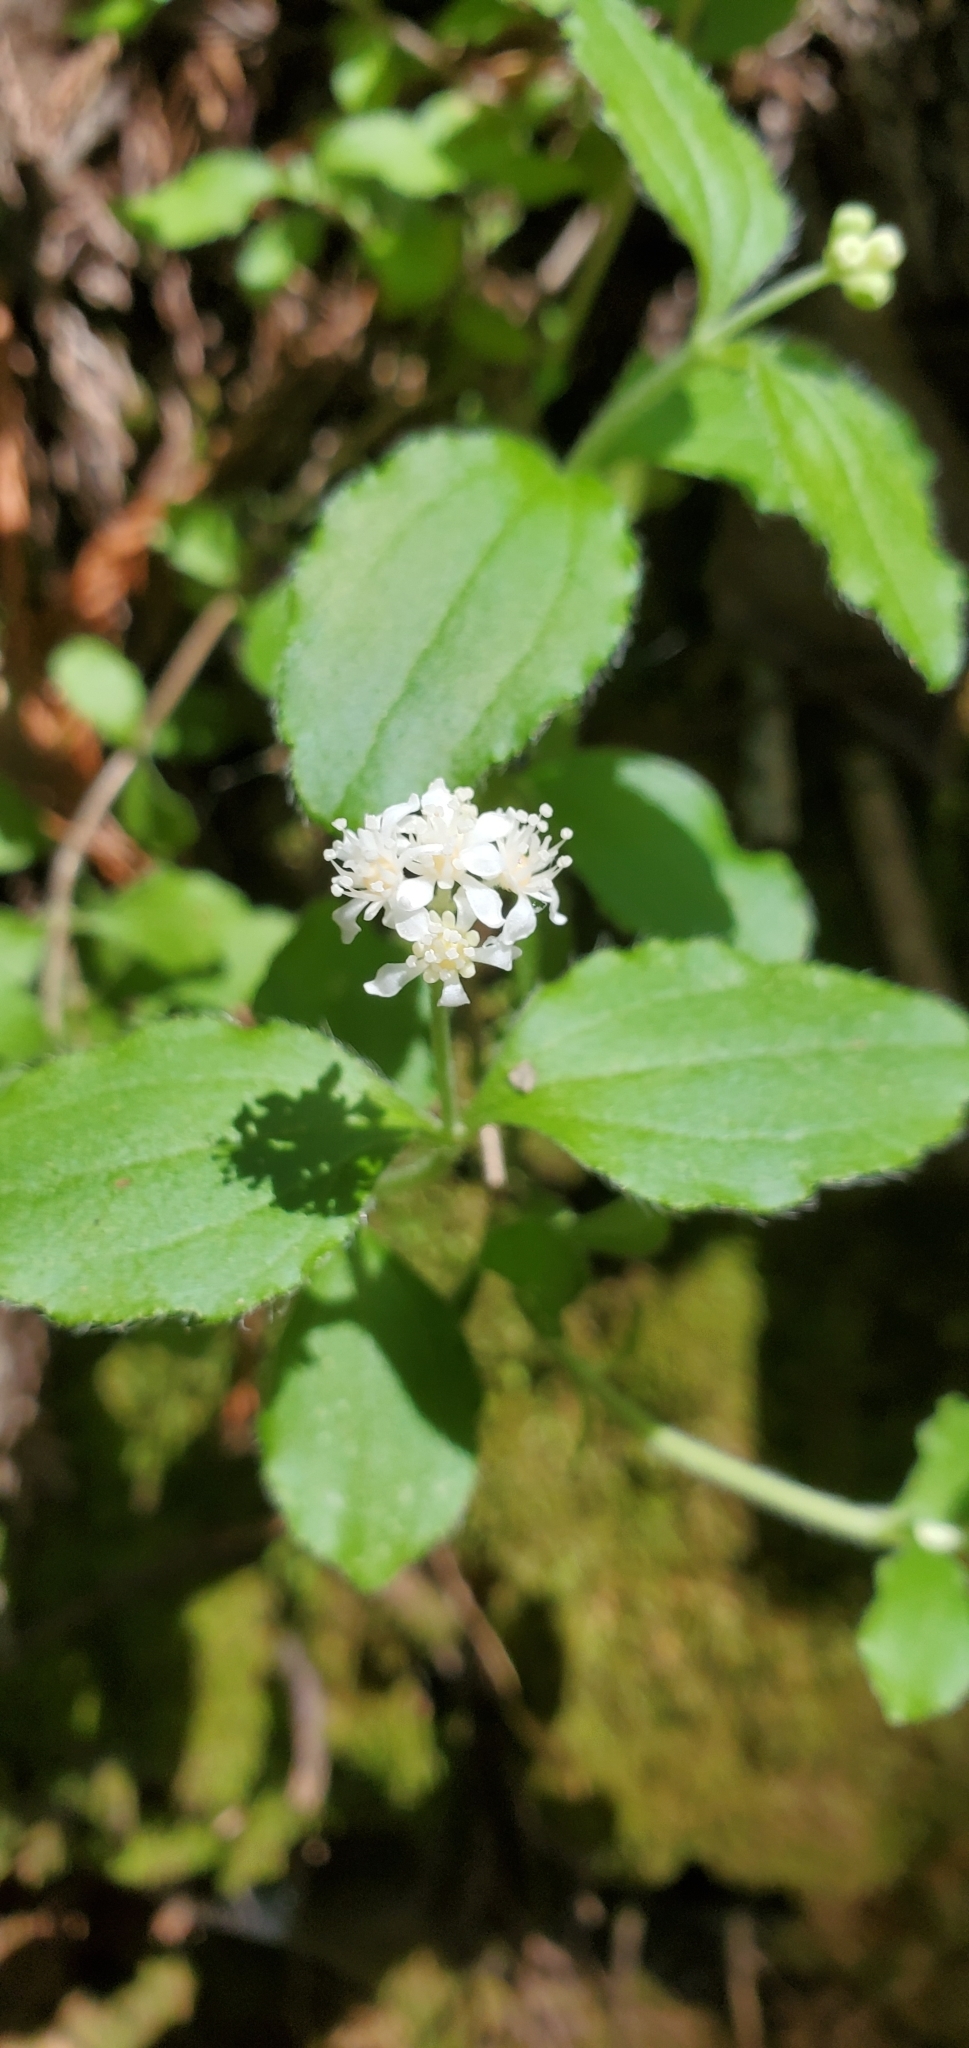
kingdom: Plantae
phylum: Tracheophyta
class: Magnoliopsida
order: Cornales
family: Hydrangeaceae
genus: Whipplea
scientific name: Whipplea modesta
